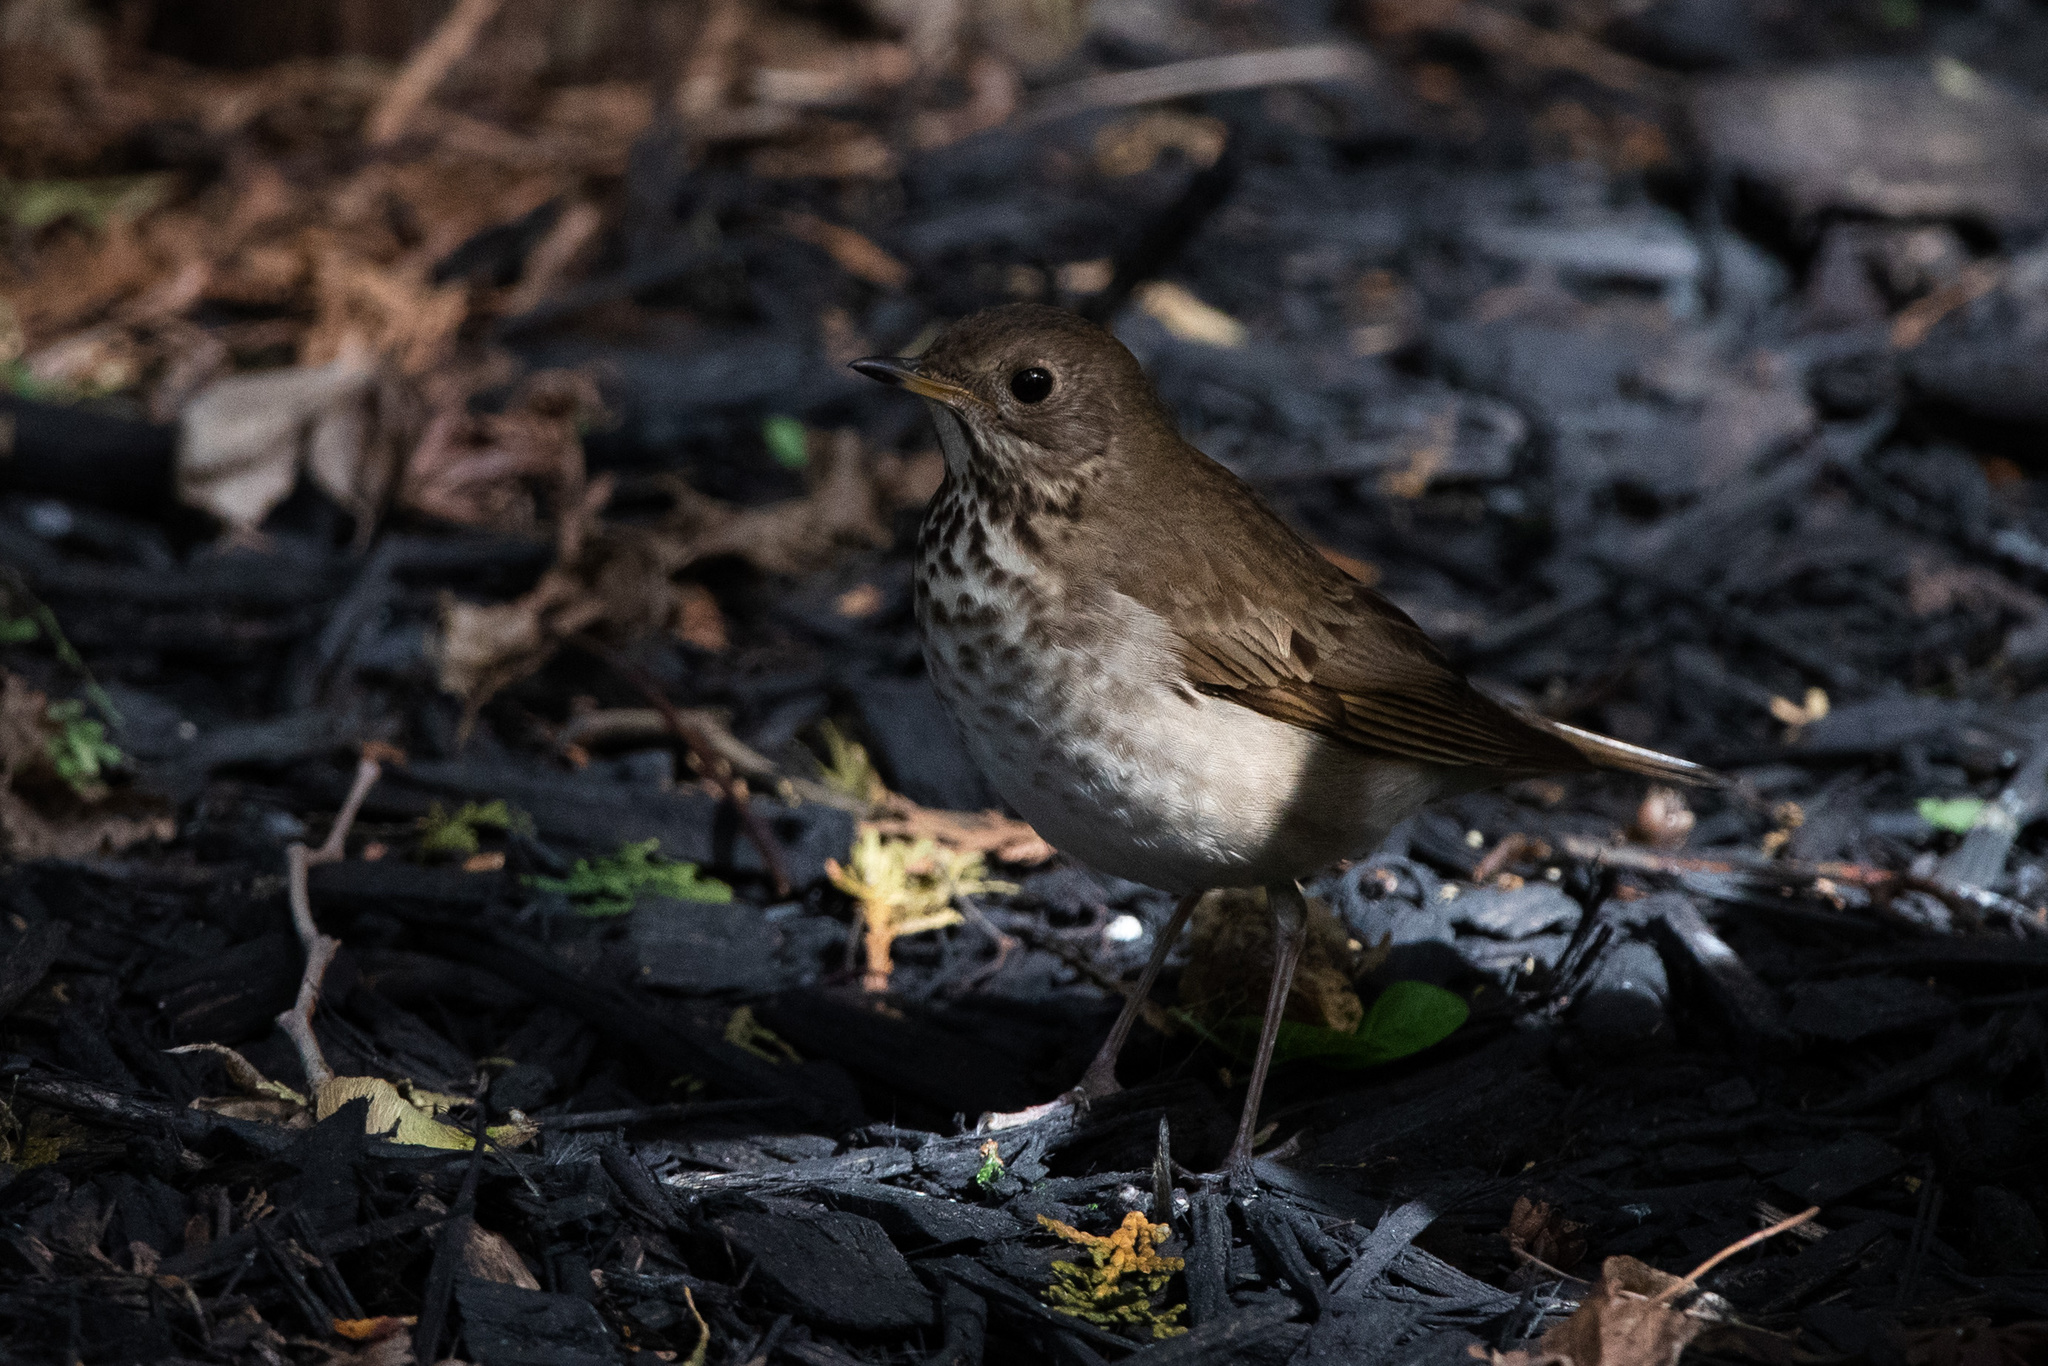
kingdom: Animalia
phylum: Chordata
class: Aves
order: Passeriformes
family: Turdidae
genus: Catharus
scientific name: Catharus minimus
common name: Grey-cheeked thrush
